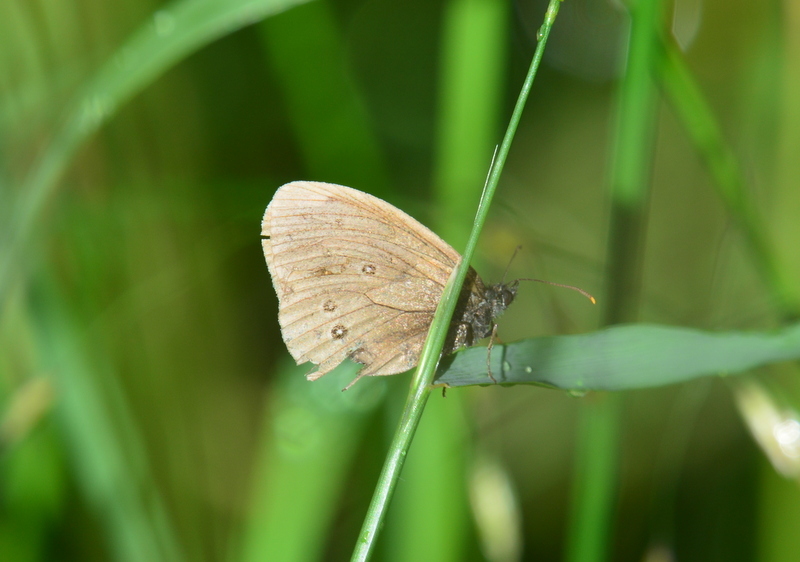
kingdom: Animalia
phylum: Arthropoda
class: Insecta
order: Lepidoptera
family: Nymphalidae
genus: Aphantopus
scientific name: Aphantopus hyperantus
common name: Ringlet
